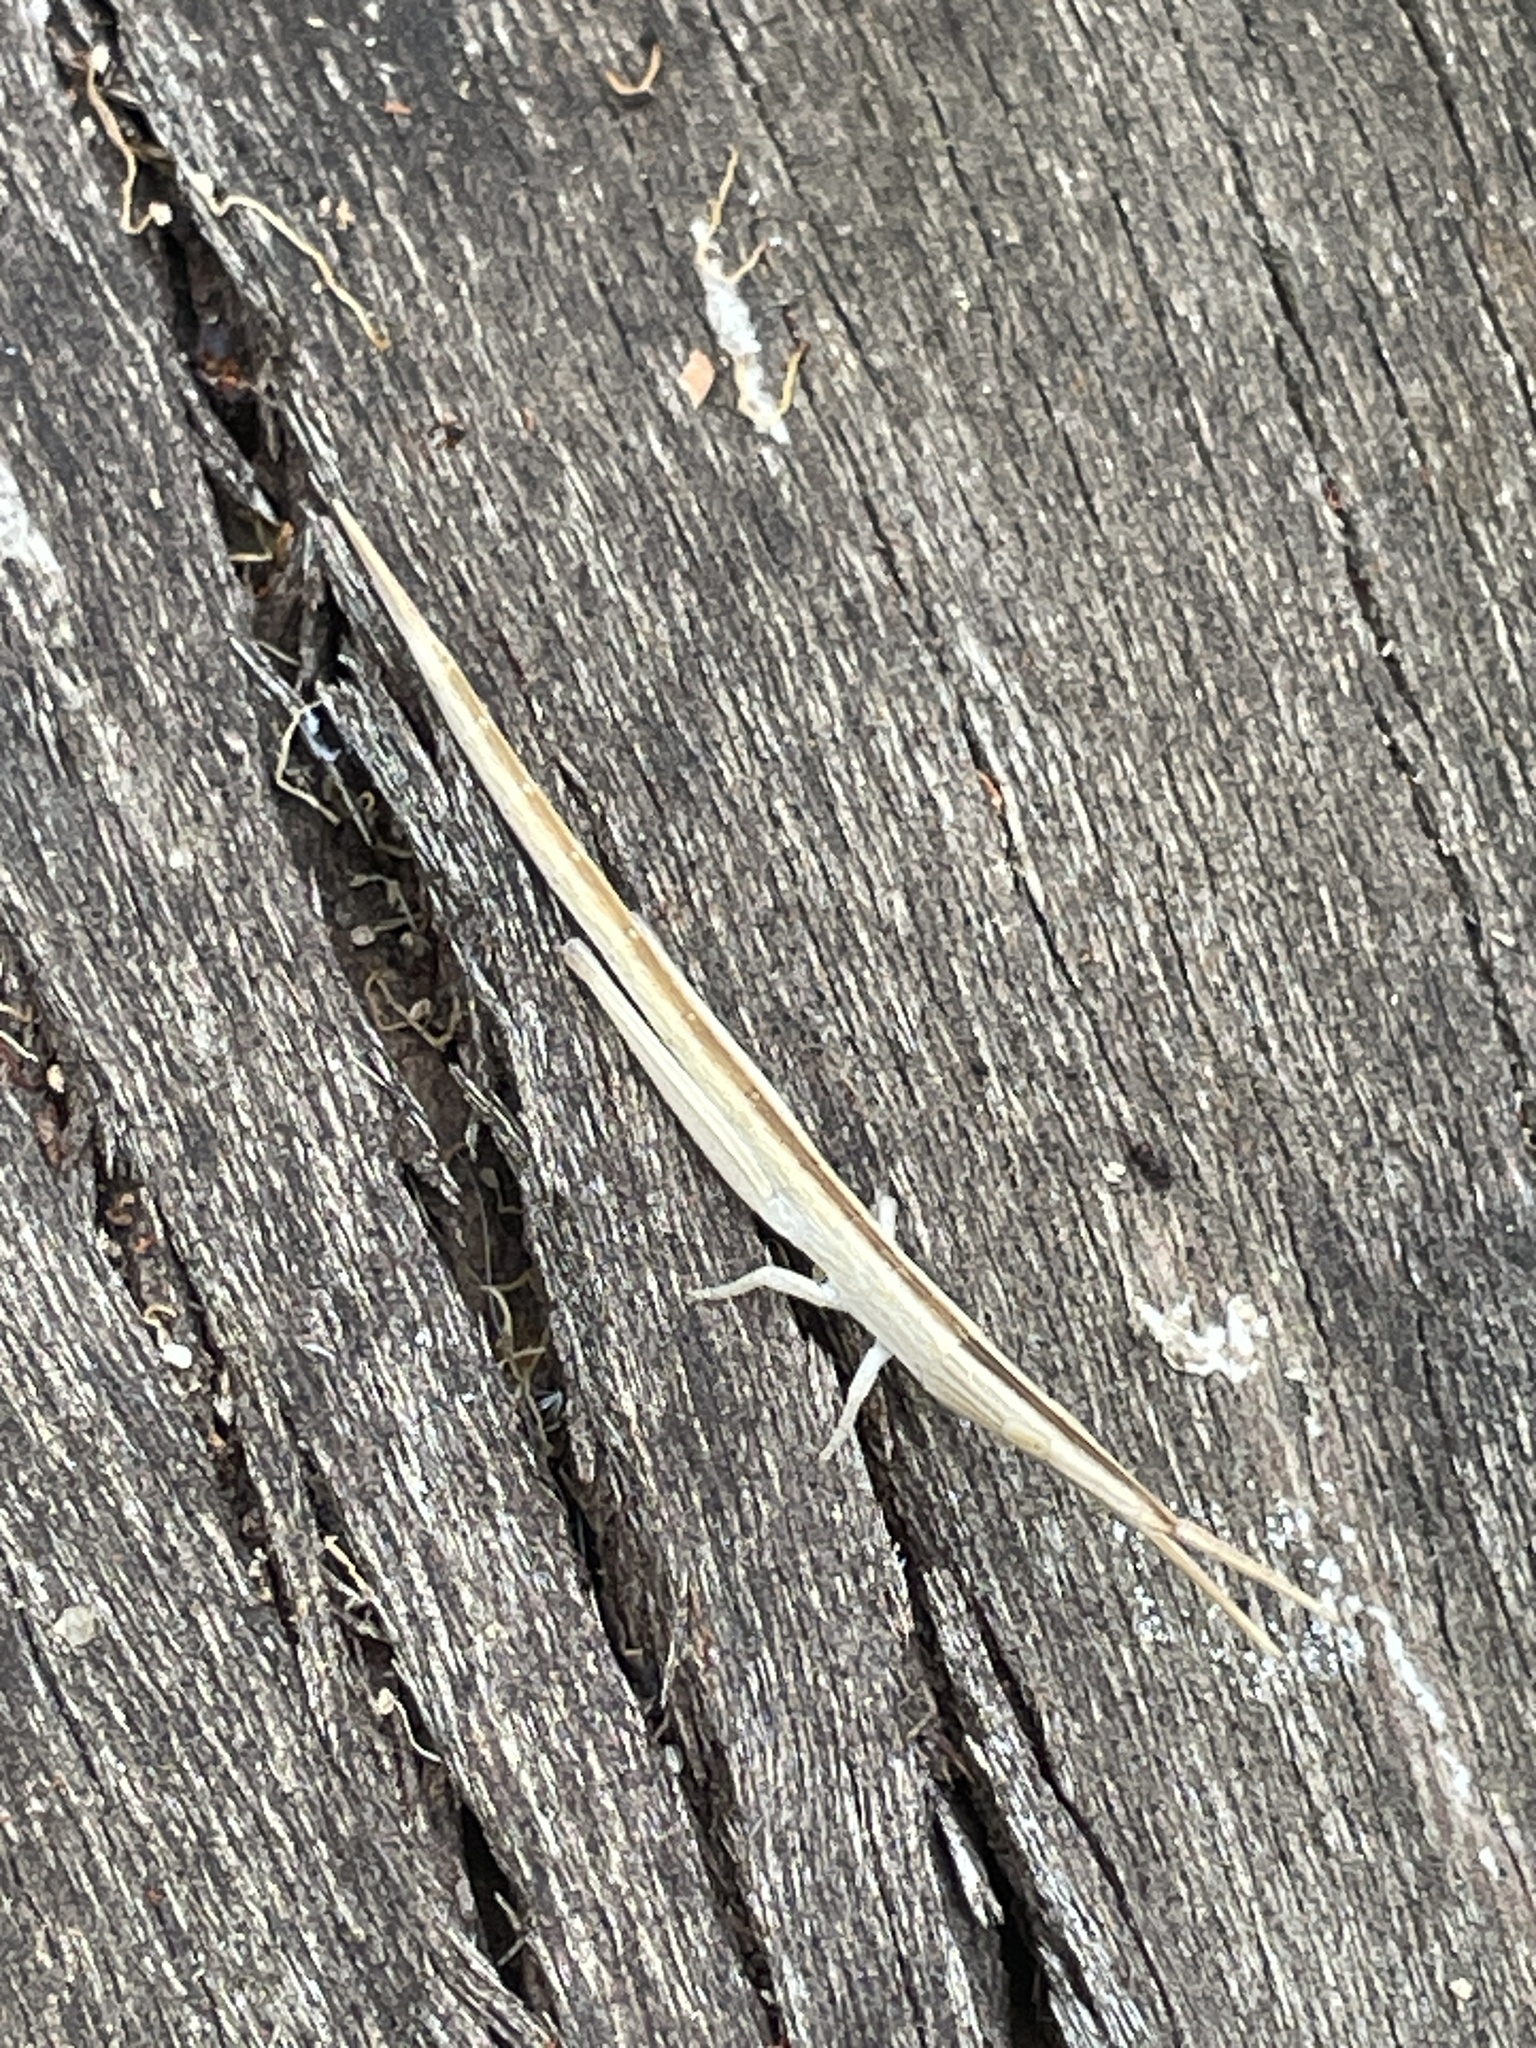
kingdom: Animalia
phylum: Arthropoda
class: Insecta
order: Orthoptera
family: Pyrgomorphidae
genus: Psednura
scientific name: Psednura pedestris
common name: Common psednura
